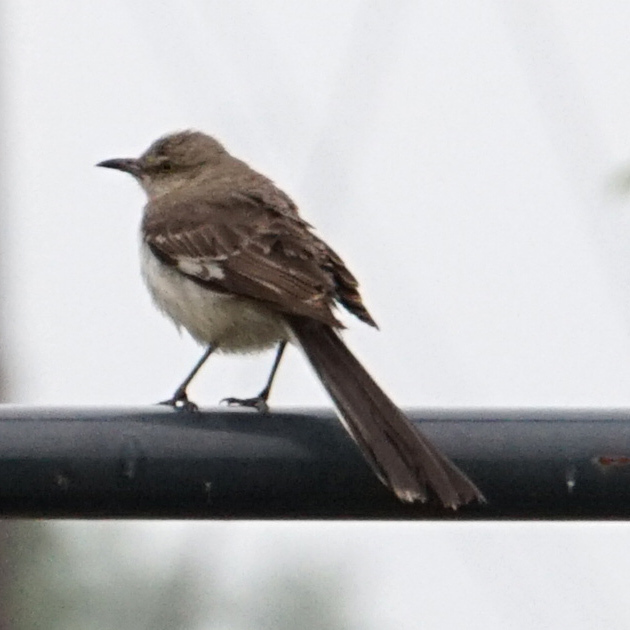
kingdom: Animalia
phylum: Chordata
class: Aves
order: Passeriformes
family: Mimidae
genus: Mimus
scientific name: Mimus polyglottos
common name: Northern mockingbird
